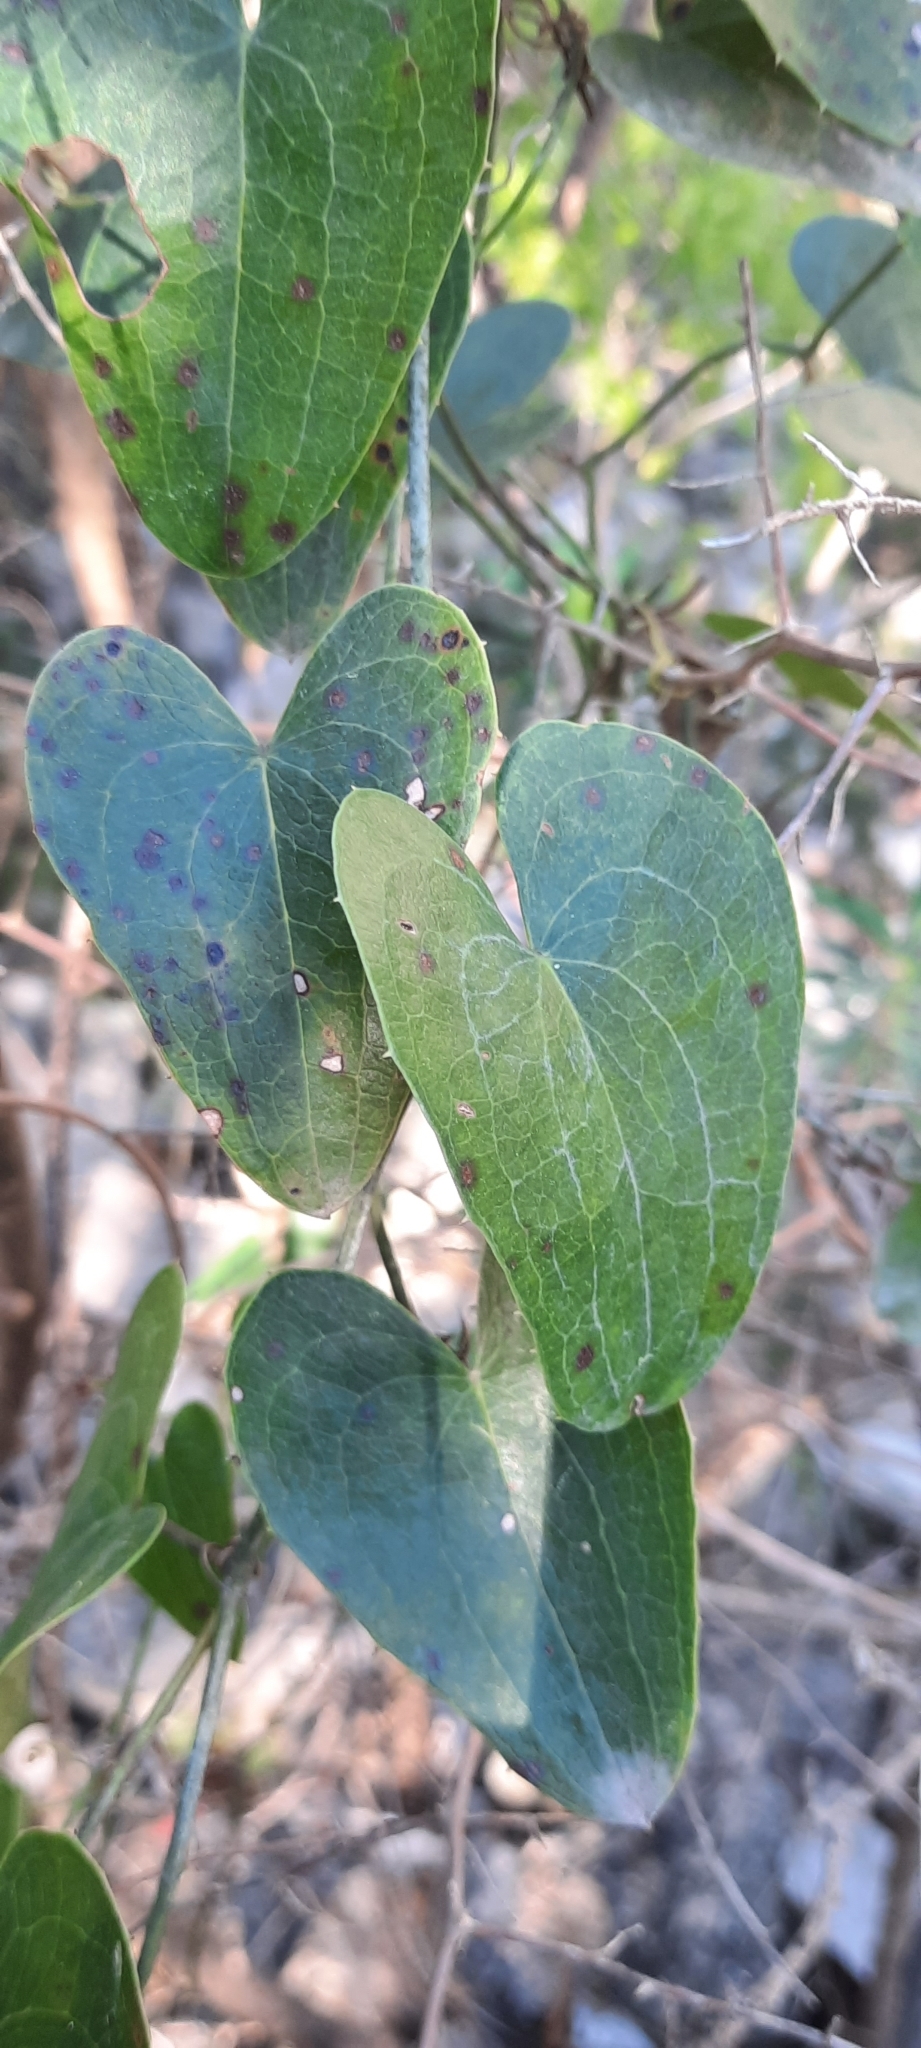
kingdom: Plantae
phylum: Tracheophyta
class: Liliopsida
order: Liliales
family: Smilacaceae
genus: Smilax
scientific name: Smilax aspera
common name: Common smilax
